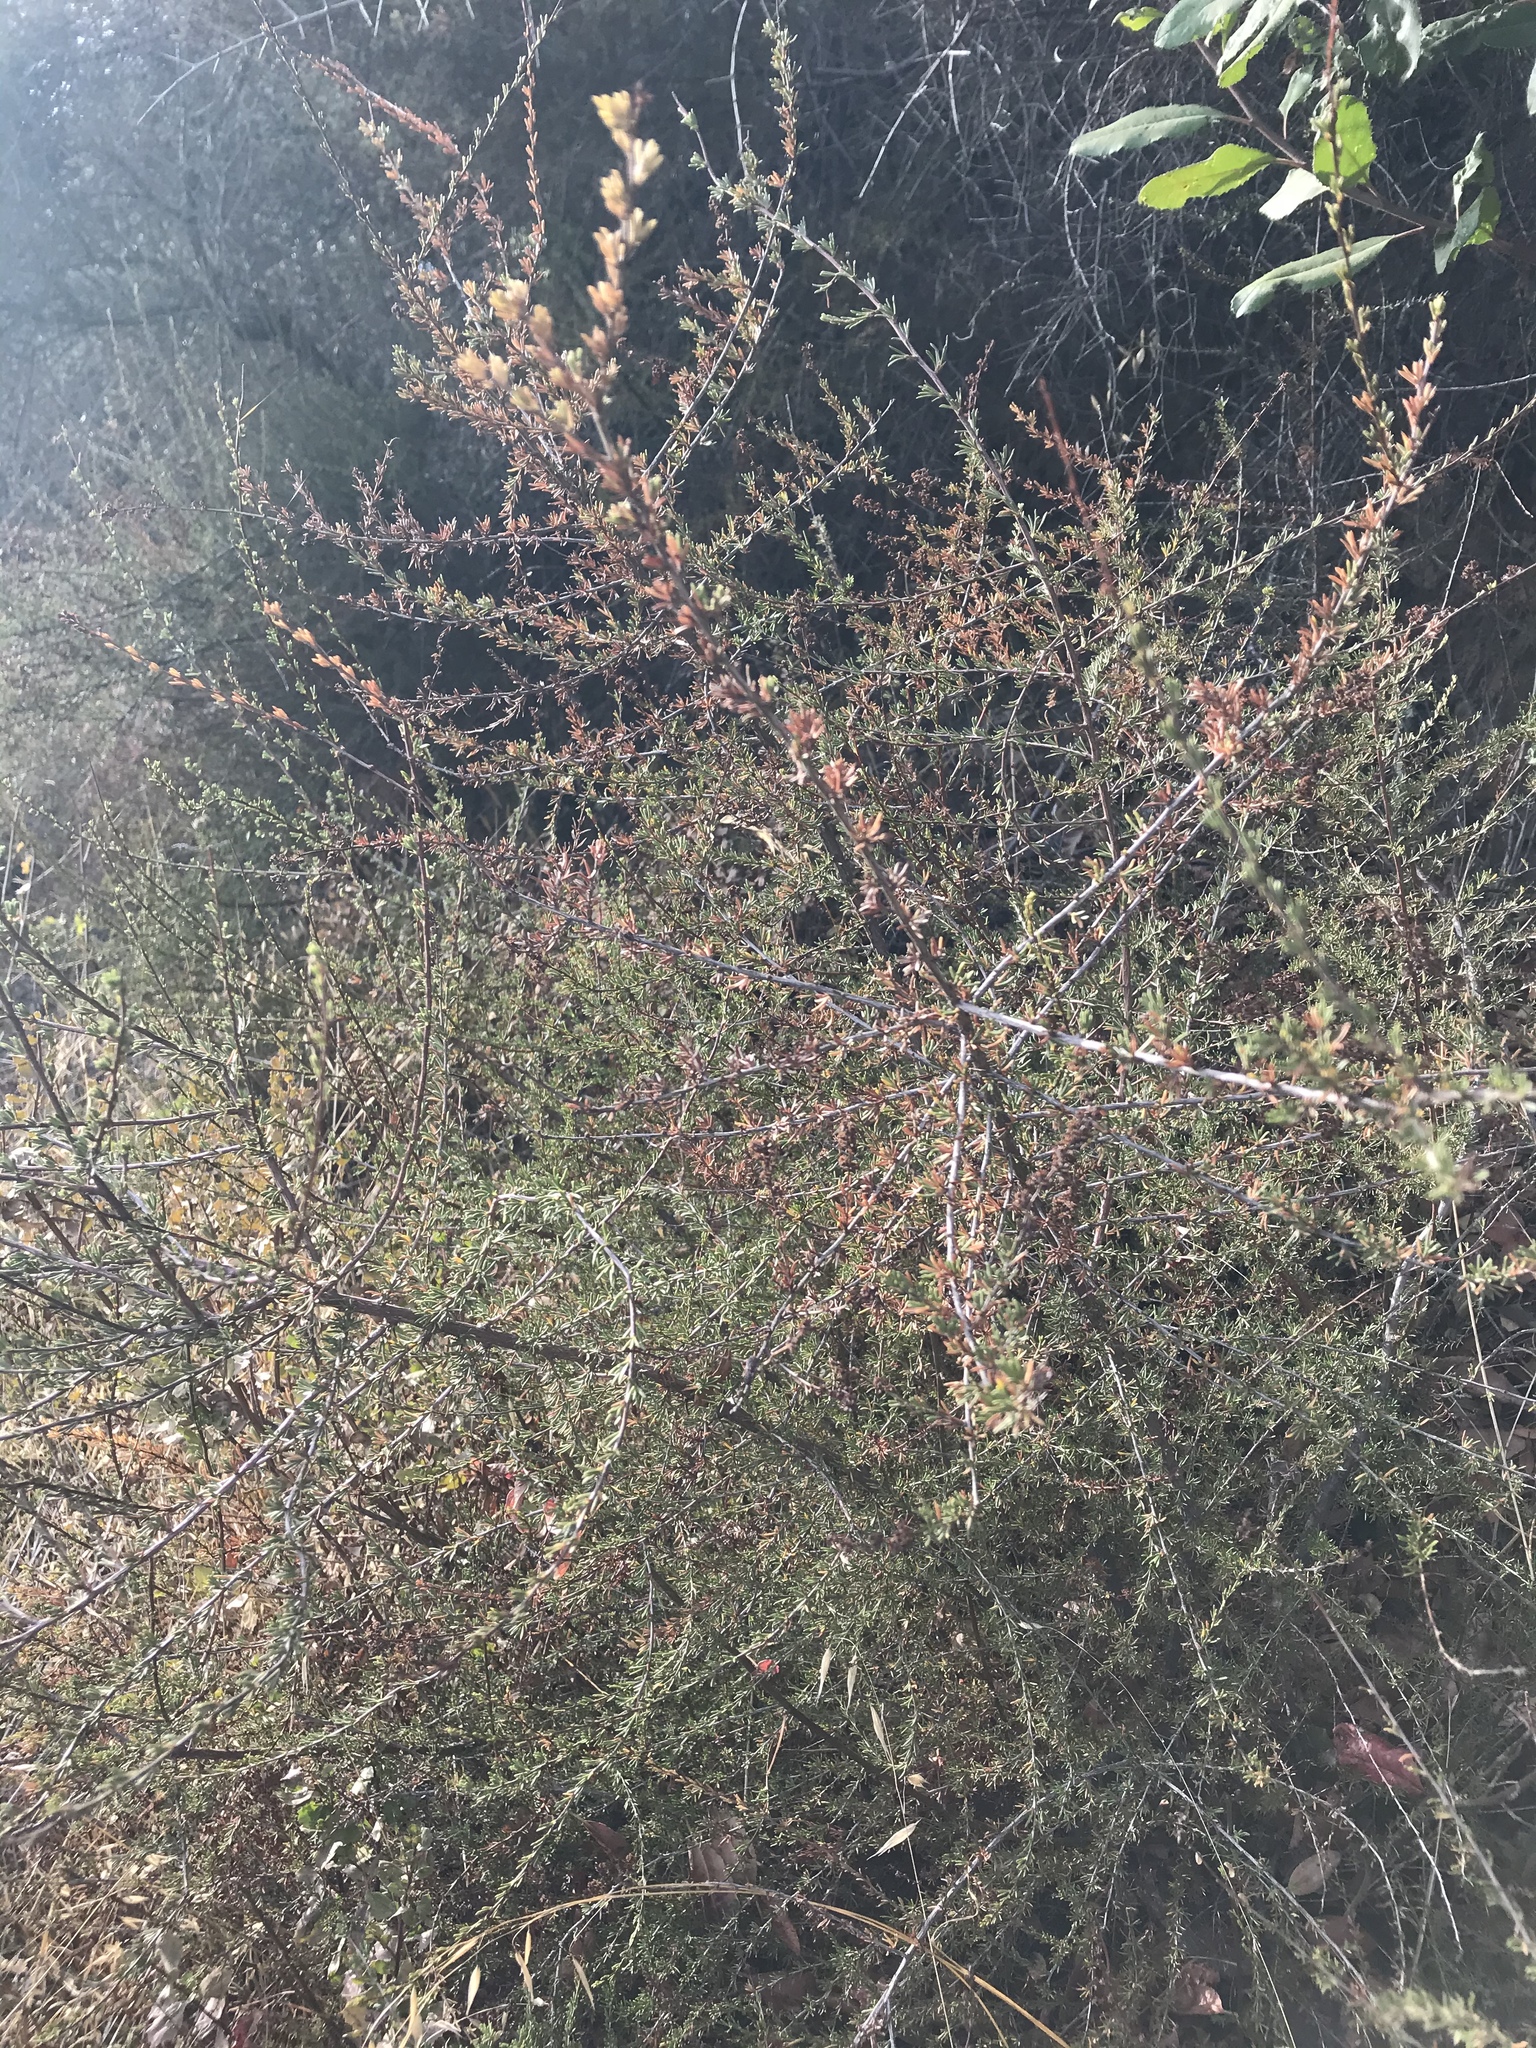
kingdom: Plantae
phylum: Tracheophyta
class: Magnoliopsida
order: Rosales
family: Rosaceae
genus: Adenostoma
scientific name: Adenostoma fasciculatum
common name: Chamise
